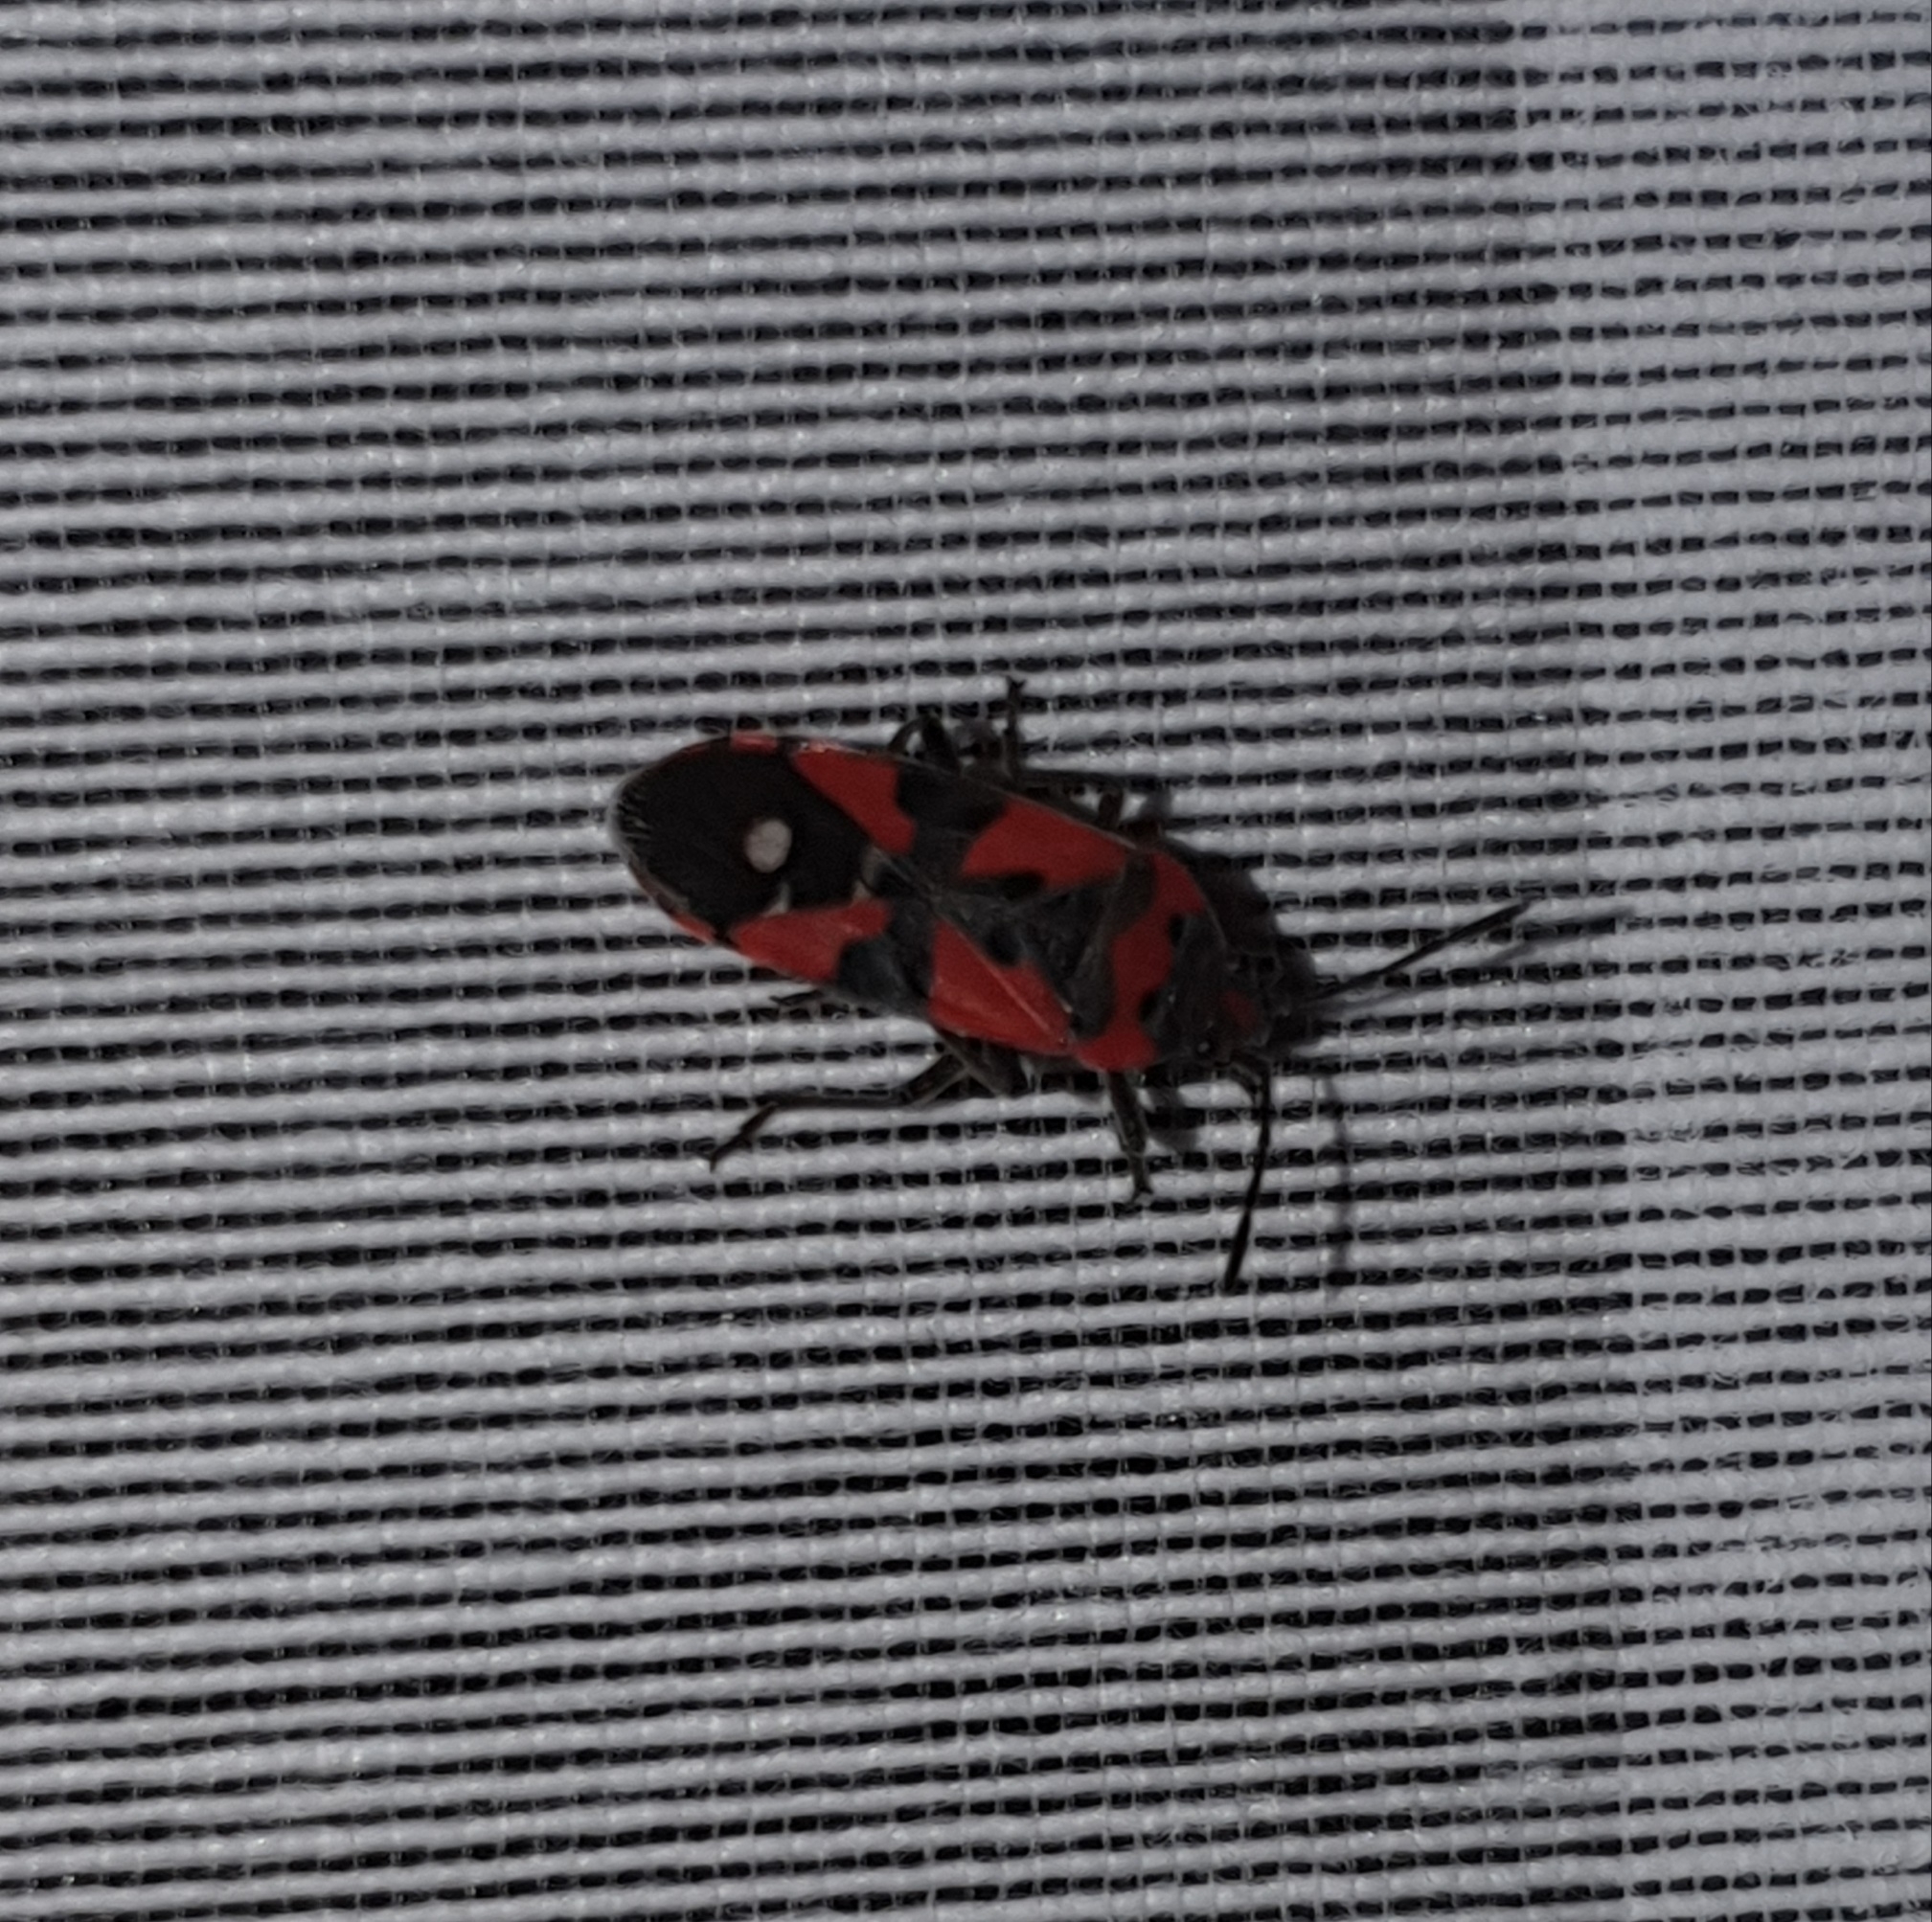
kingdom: Animalia
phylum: Arthropoda
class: Insecta
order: Hemiptera
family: Lygaeidae
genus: Lygaeus
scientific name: Lygaeus equestris
